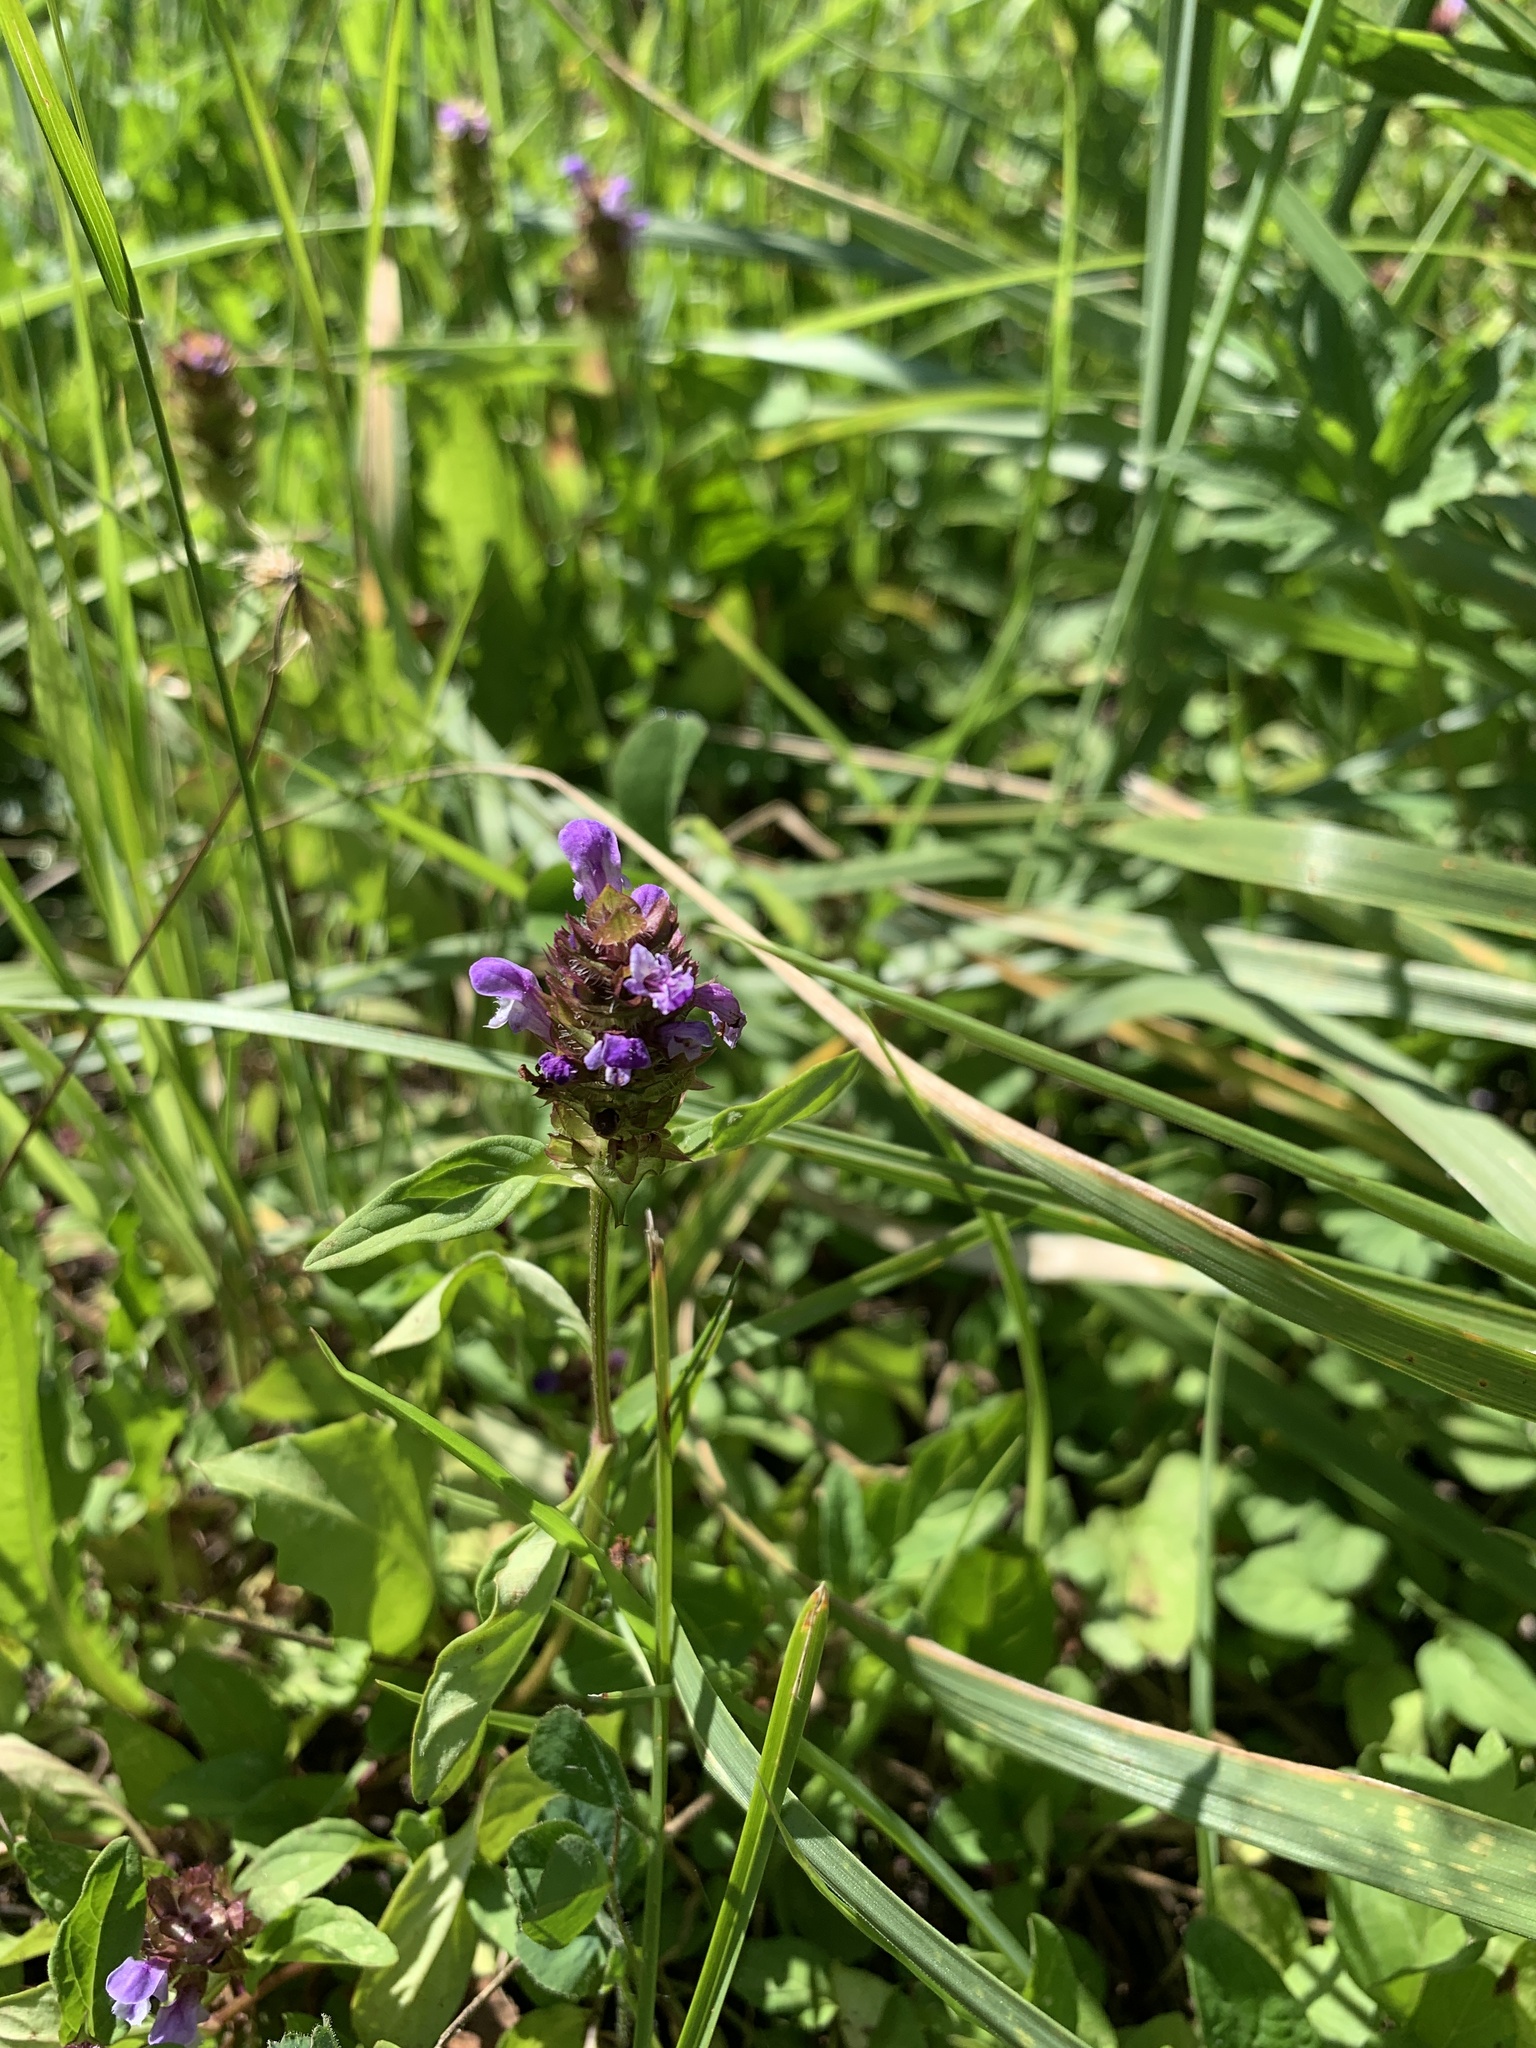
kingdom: Plantae
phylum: Tracheophyta
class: Magnoliopsida
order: Lamiales
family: Lamiaceae
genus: Prunella
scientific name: Prunella vulgaris
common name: Heal-all
